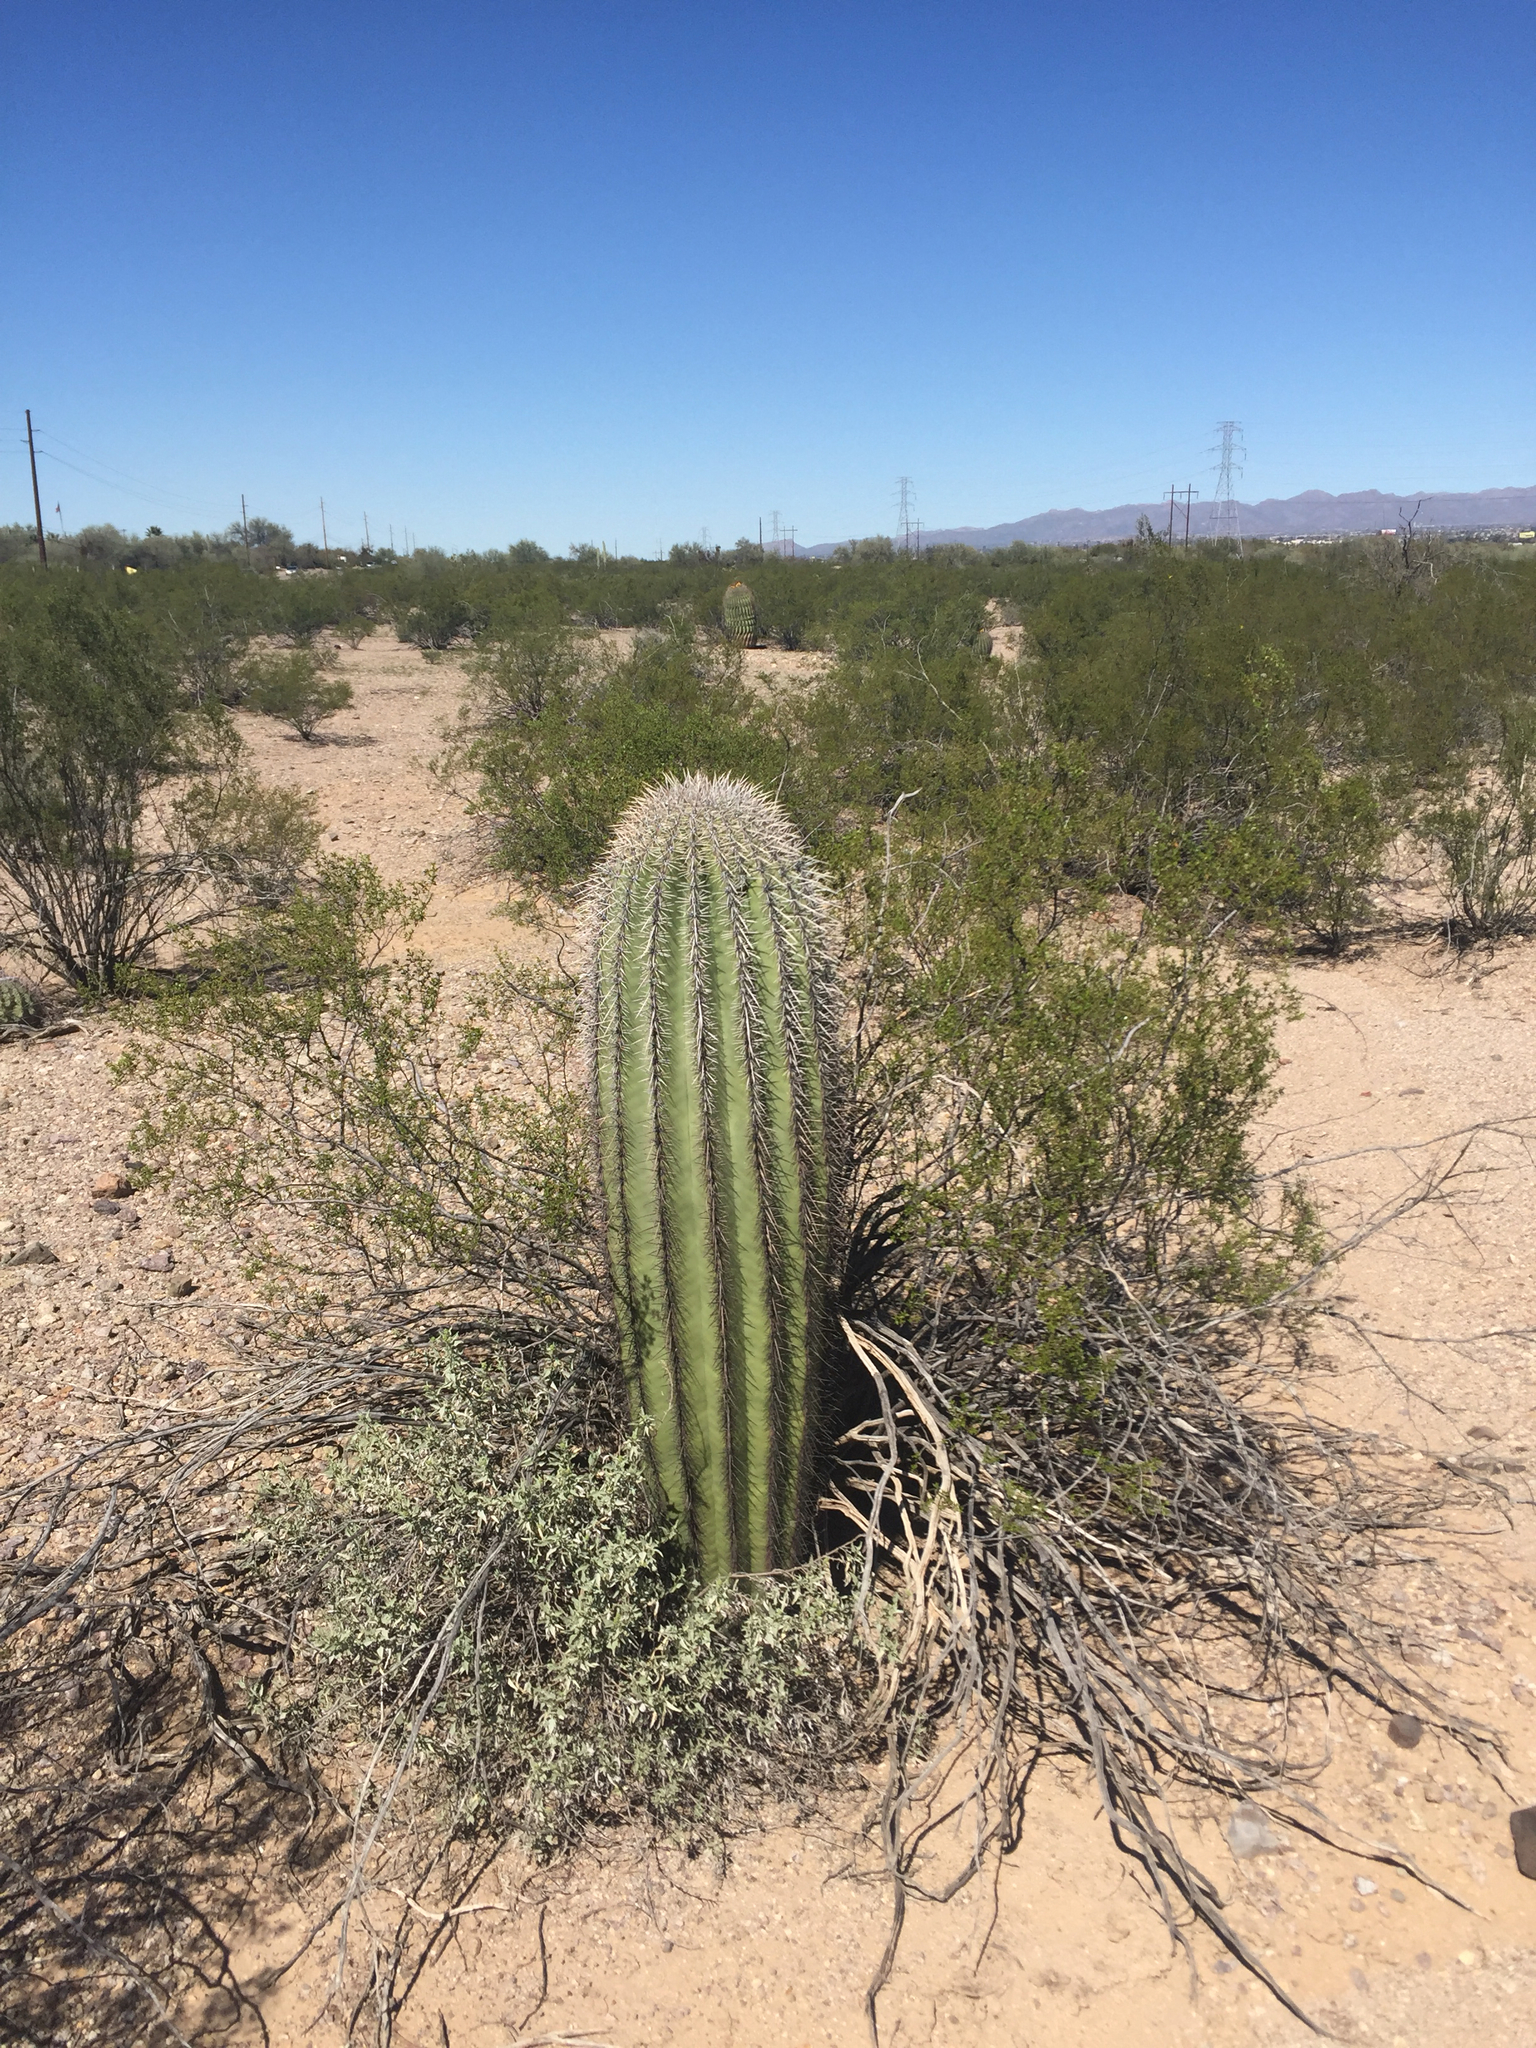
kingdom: Plantae
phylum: Tracheophyta
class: Magnoliopsida
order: Caryophyllales
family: Cactaceae
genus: Carnegiea
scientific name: Carnegiea gigantea
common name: Saguaro
